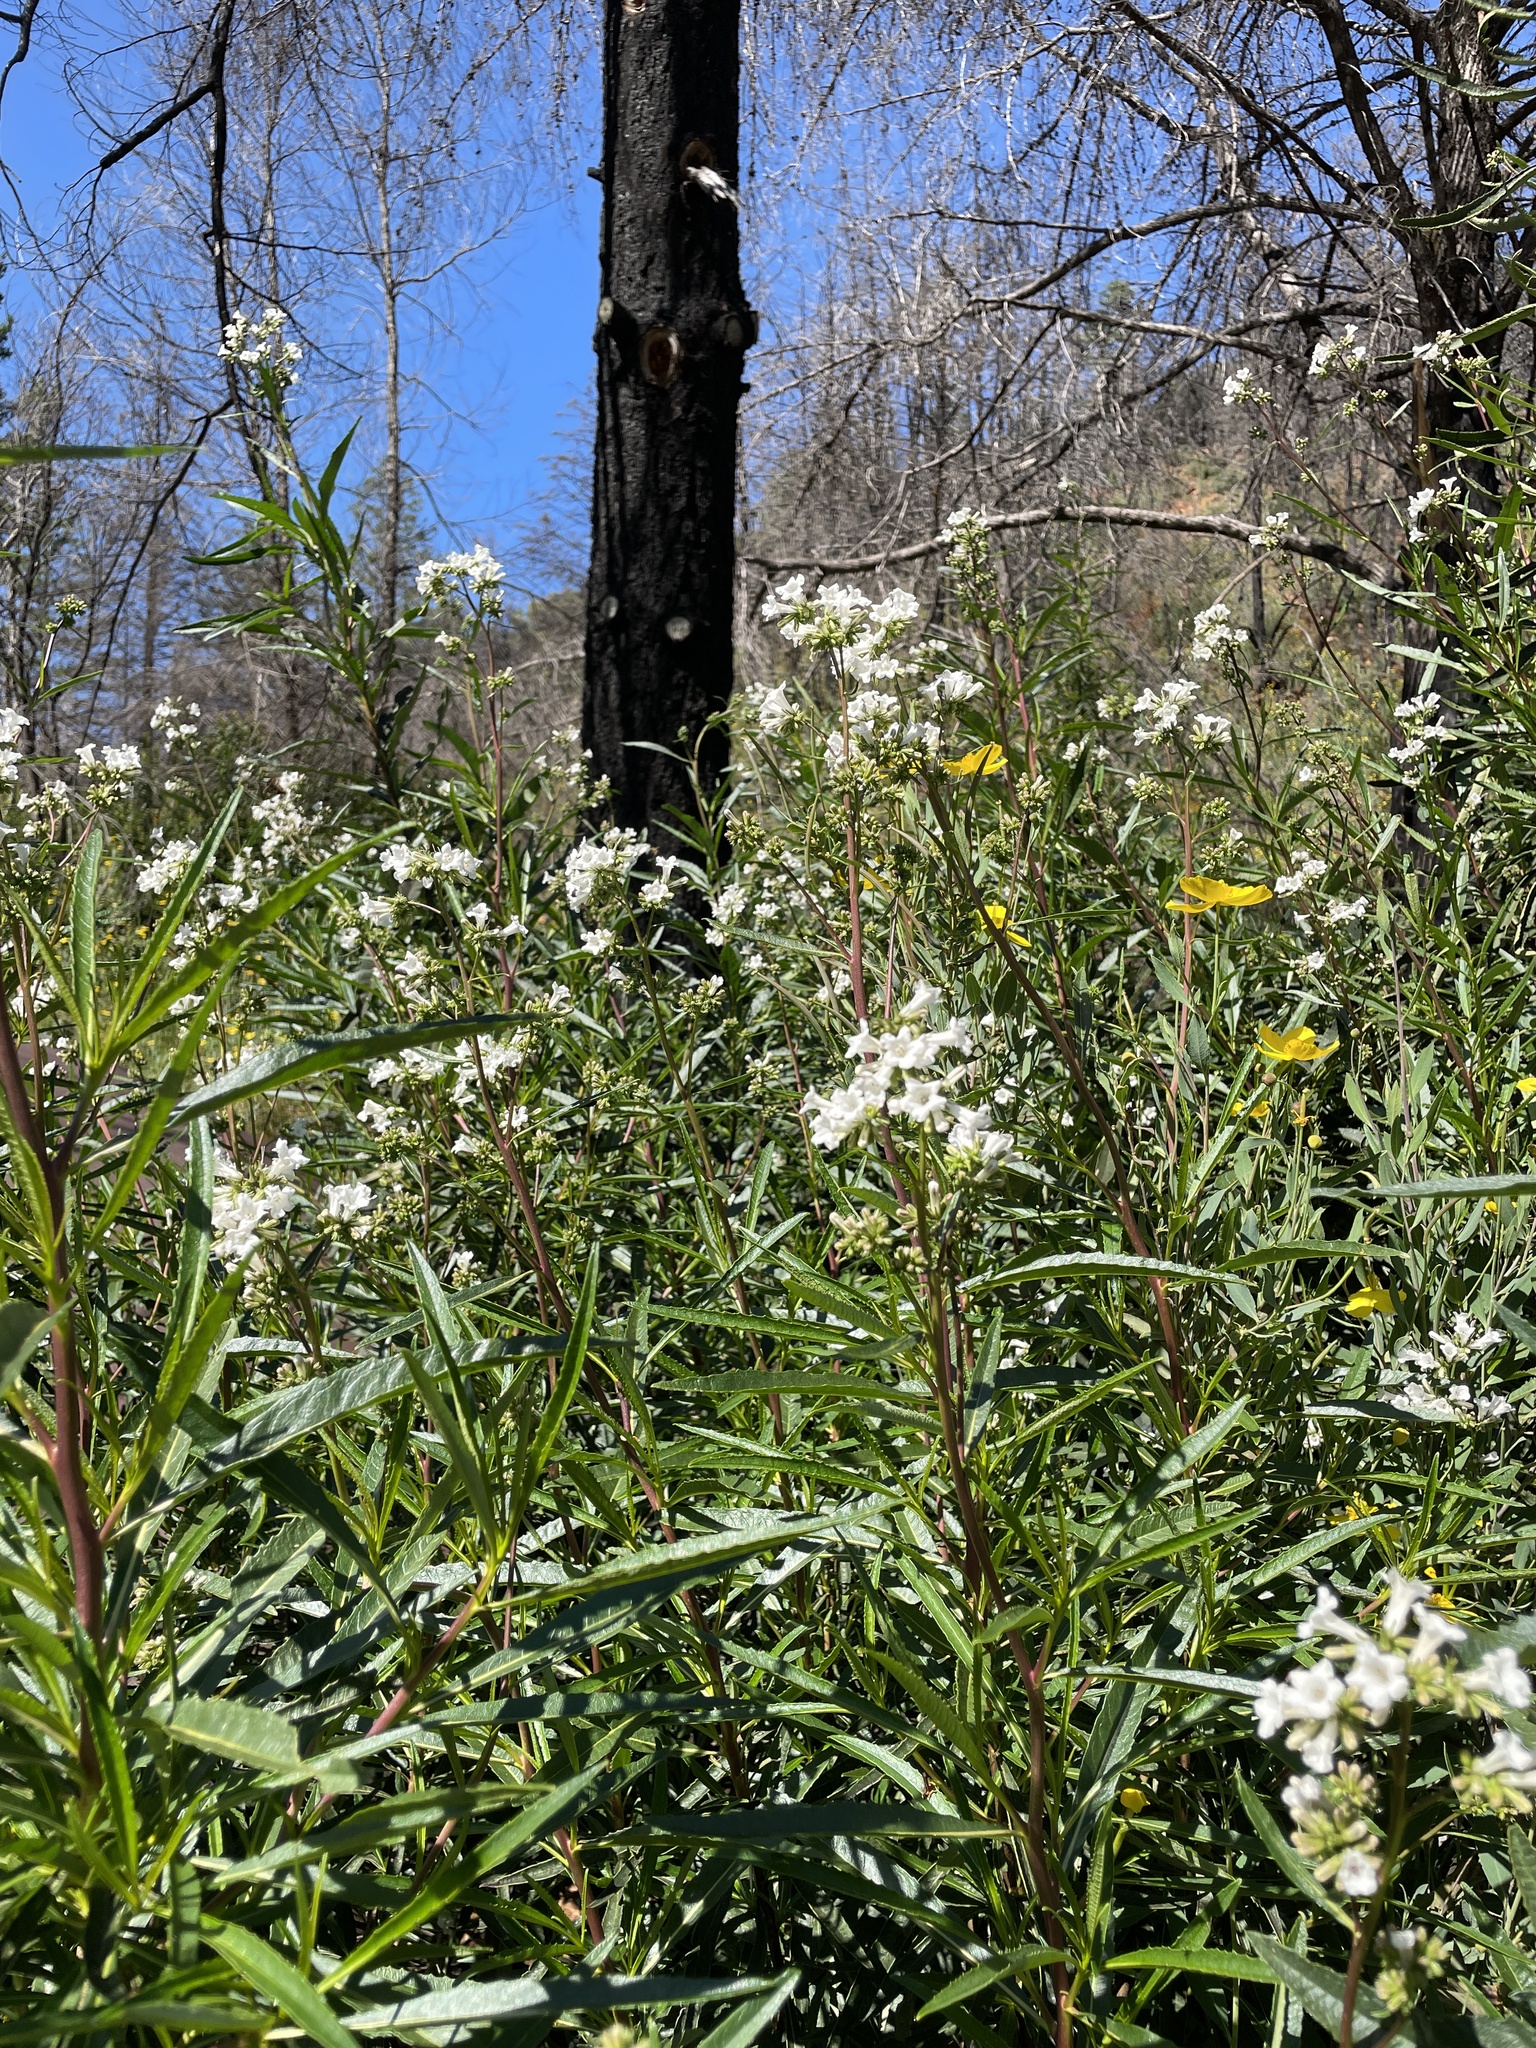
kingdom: Plantae
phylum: Tracheophyta
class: Magnoliopsida
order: Boraginales
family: Namaceae
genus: Eriodictyon
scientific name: Eriodictyon californicum
